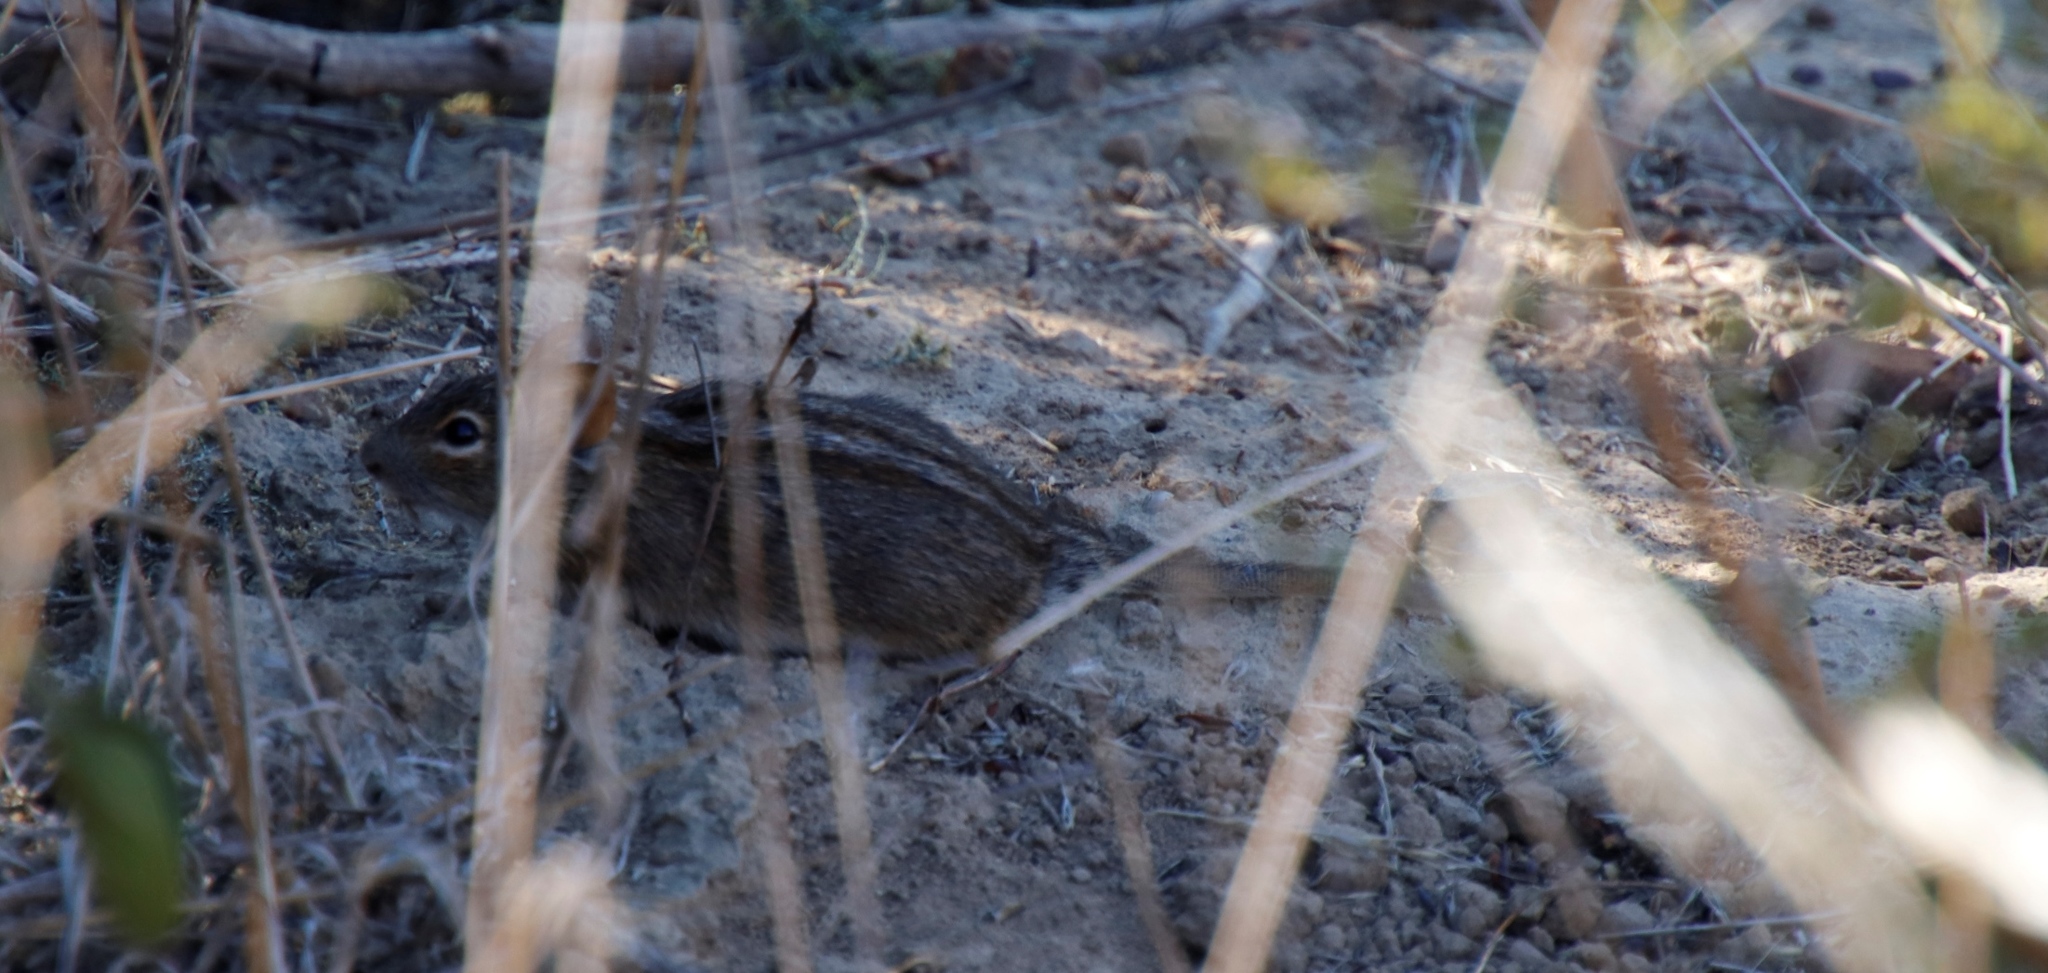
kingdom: Animalia
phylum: Chordata
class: Mammalia
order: Rodentia
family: Muridae
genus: Rhabdomys
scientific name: Rhabdomys pumilio
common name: Xeric four-striped grass rat
